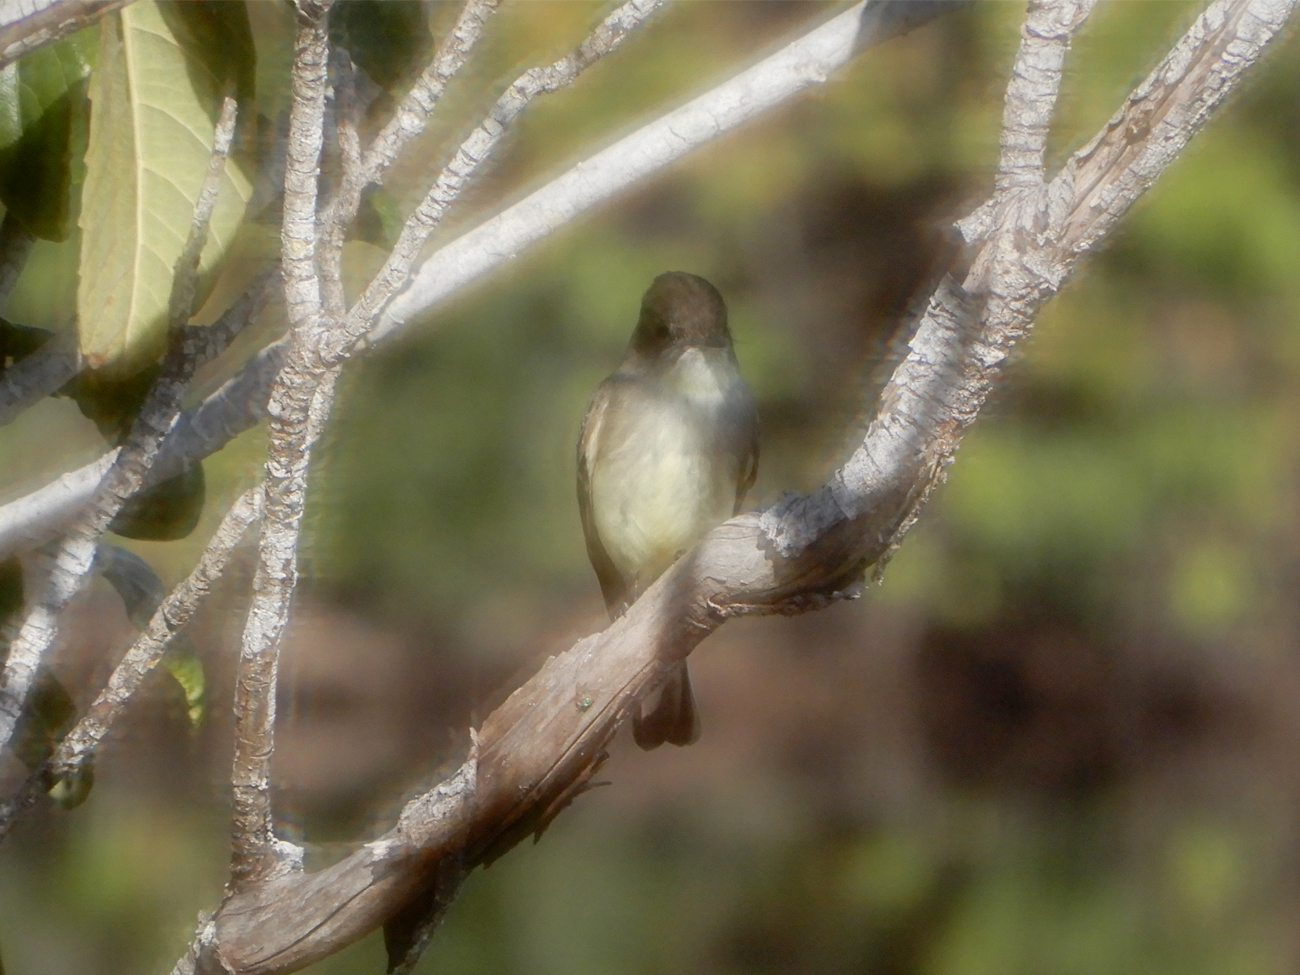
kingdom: Animalia
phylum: Chordata
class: Aves
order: Passeriformes
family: Tyrannidae
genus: Sayornis
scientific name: Sayornis phoebe
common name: Eastern phoebe
